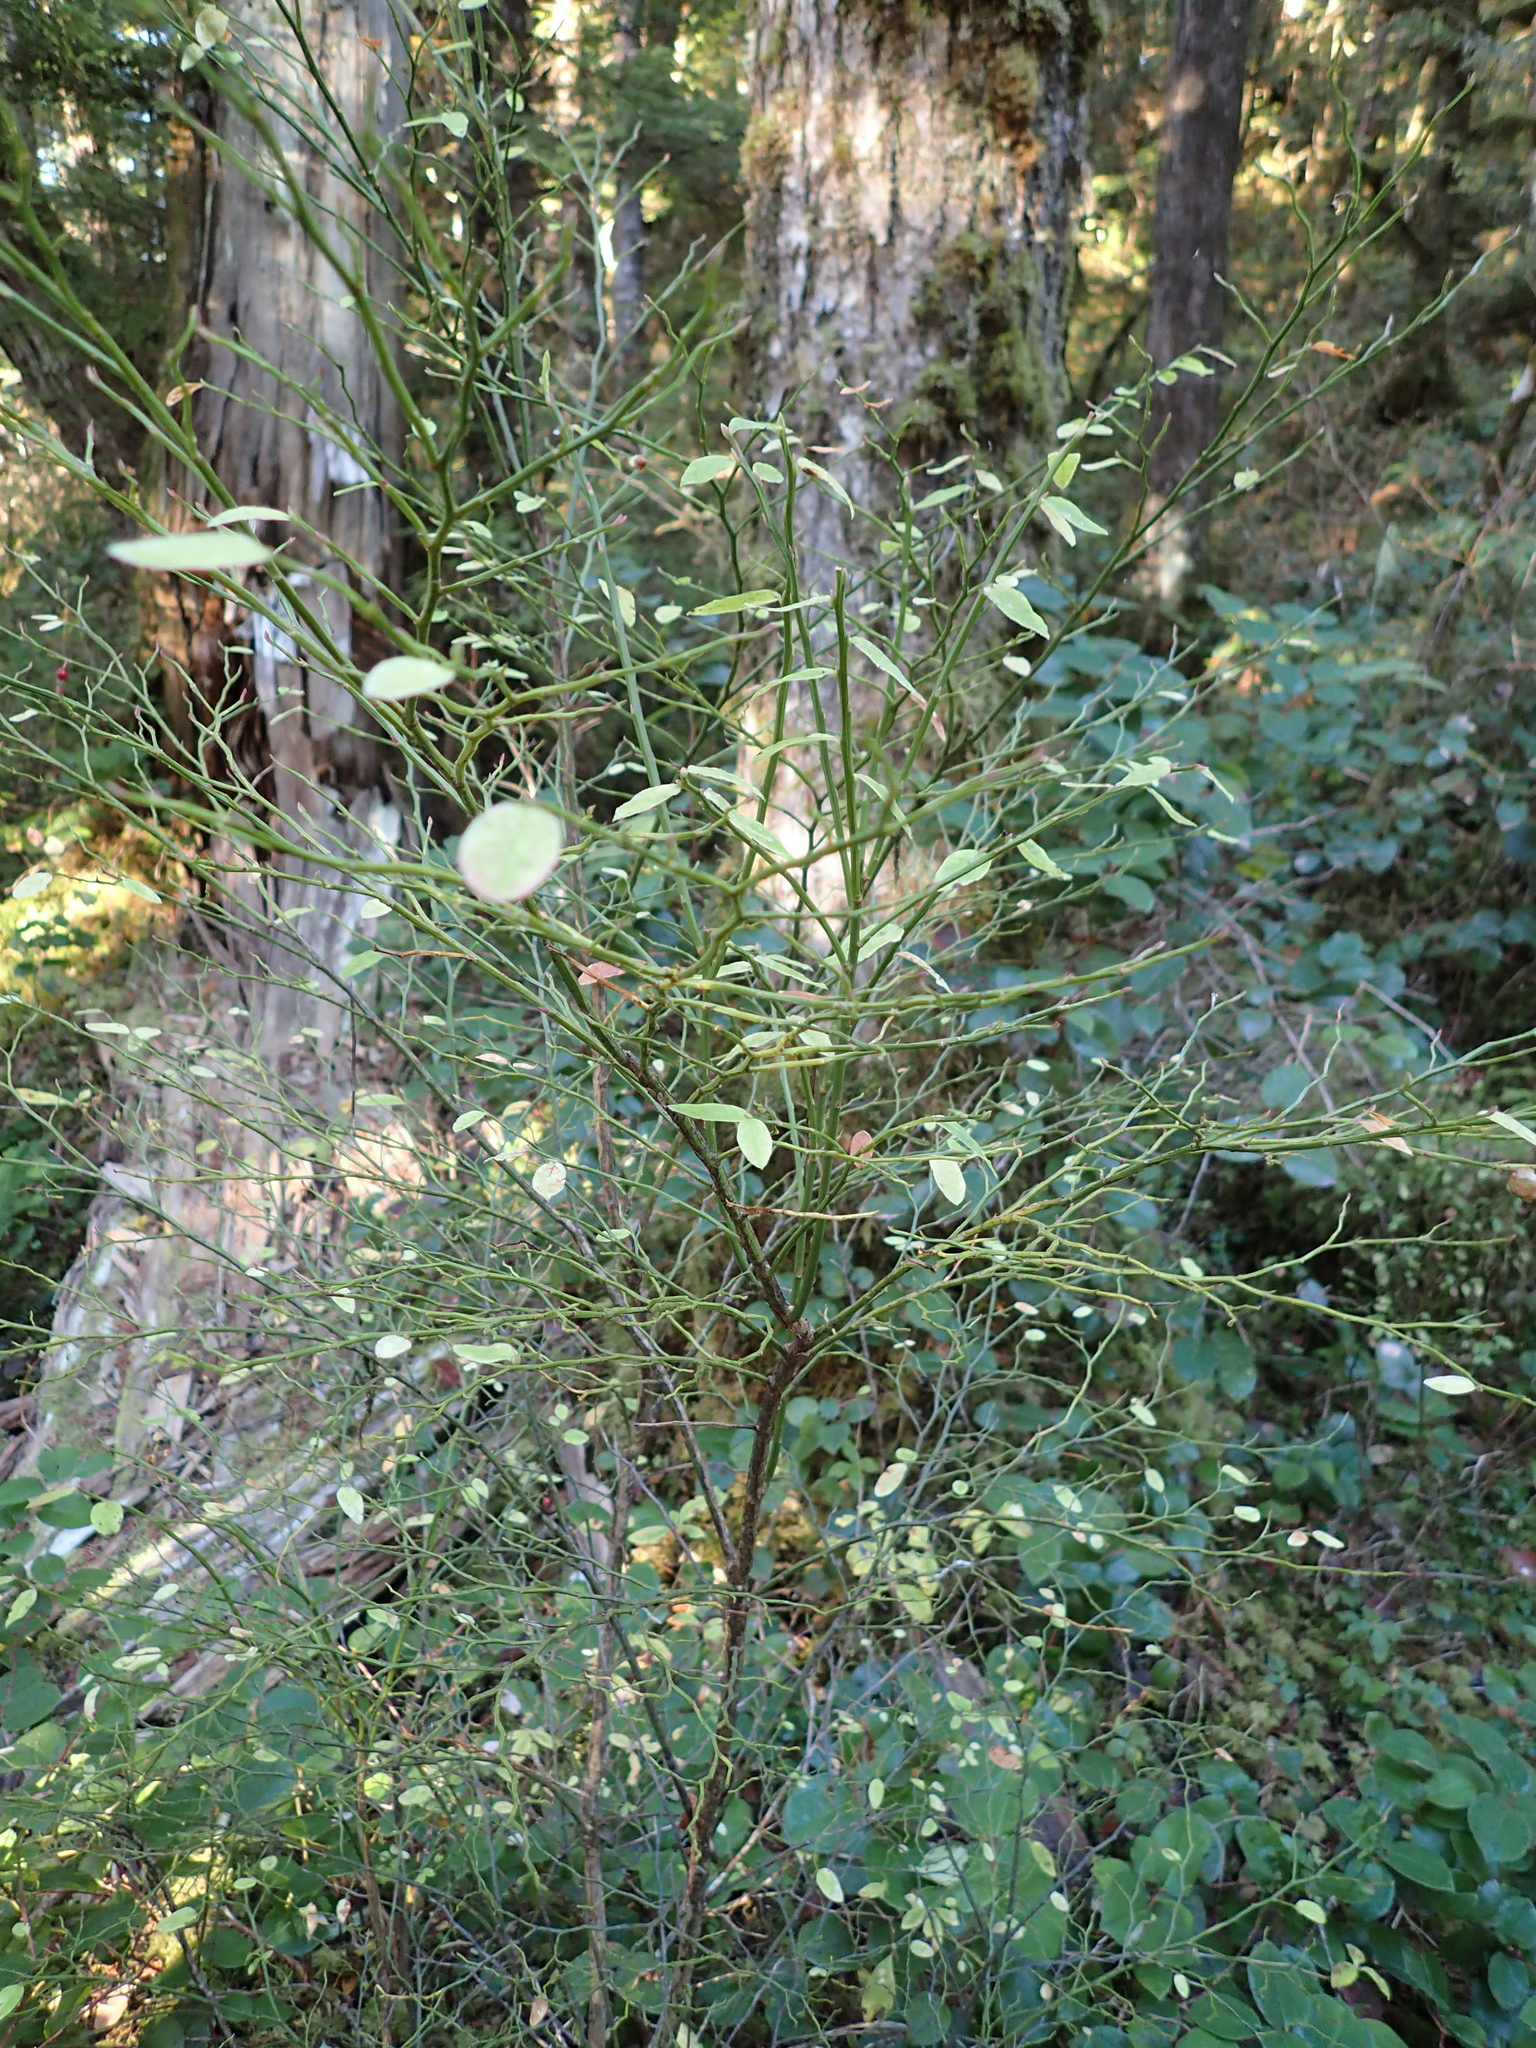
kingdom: Plantae
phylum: Tracheophyta
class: Magnoliopsida
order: Ericales
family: Ericaceae
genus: Vaccinium
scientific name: Vaccinium parvifolium
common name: Red-huckleberry
